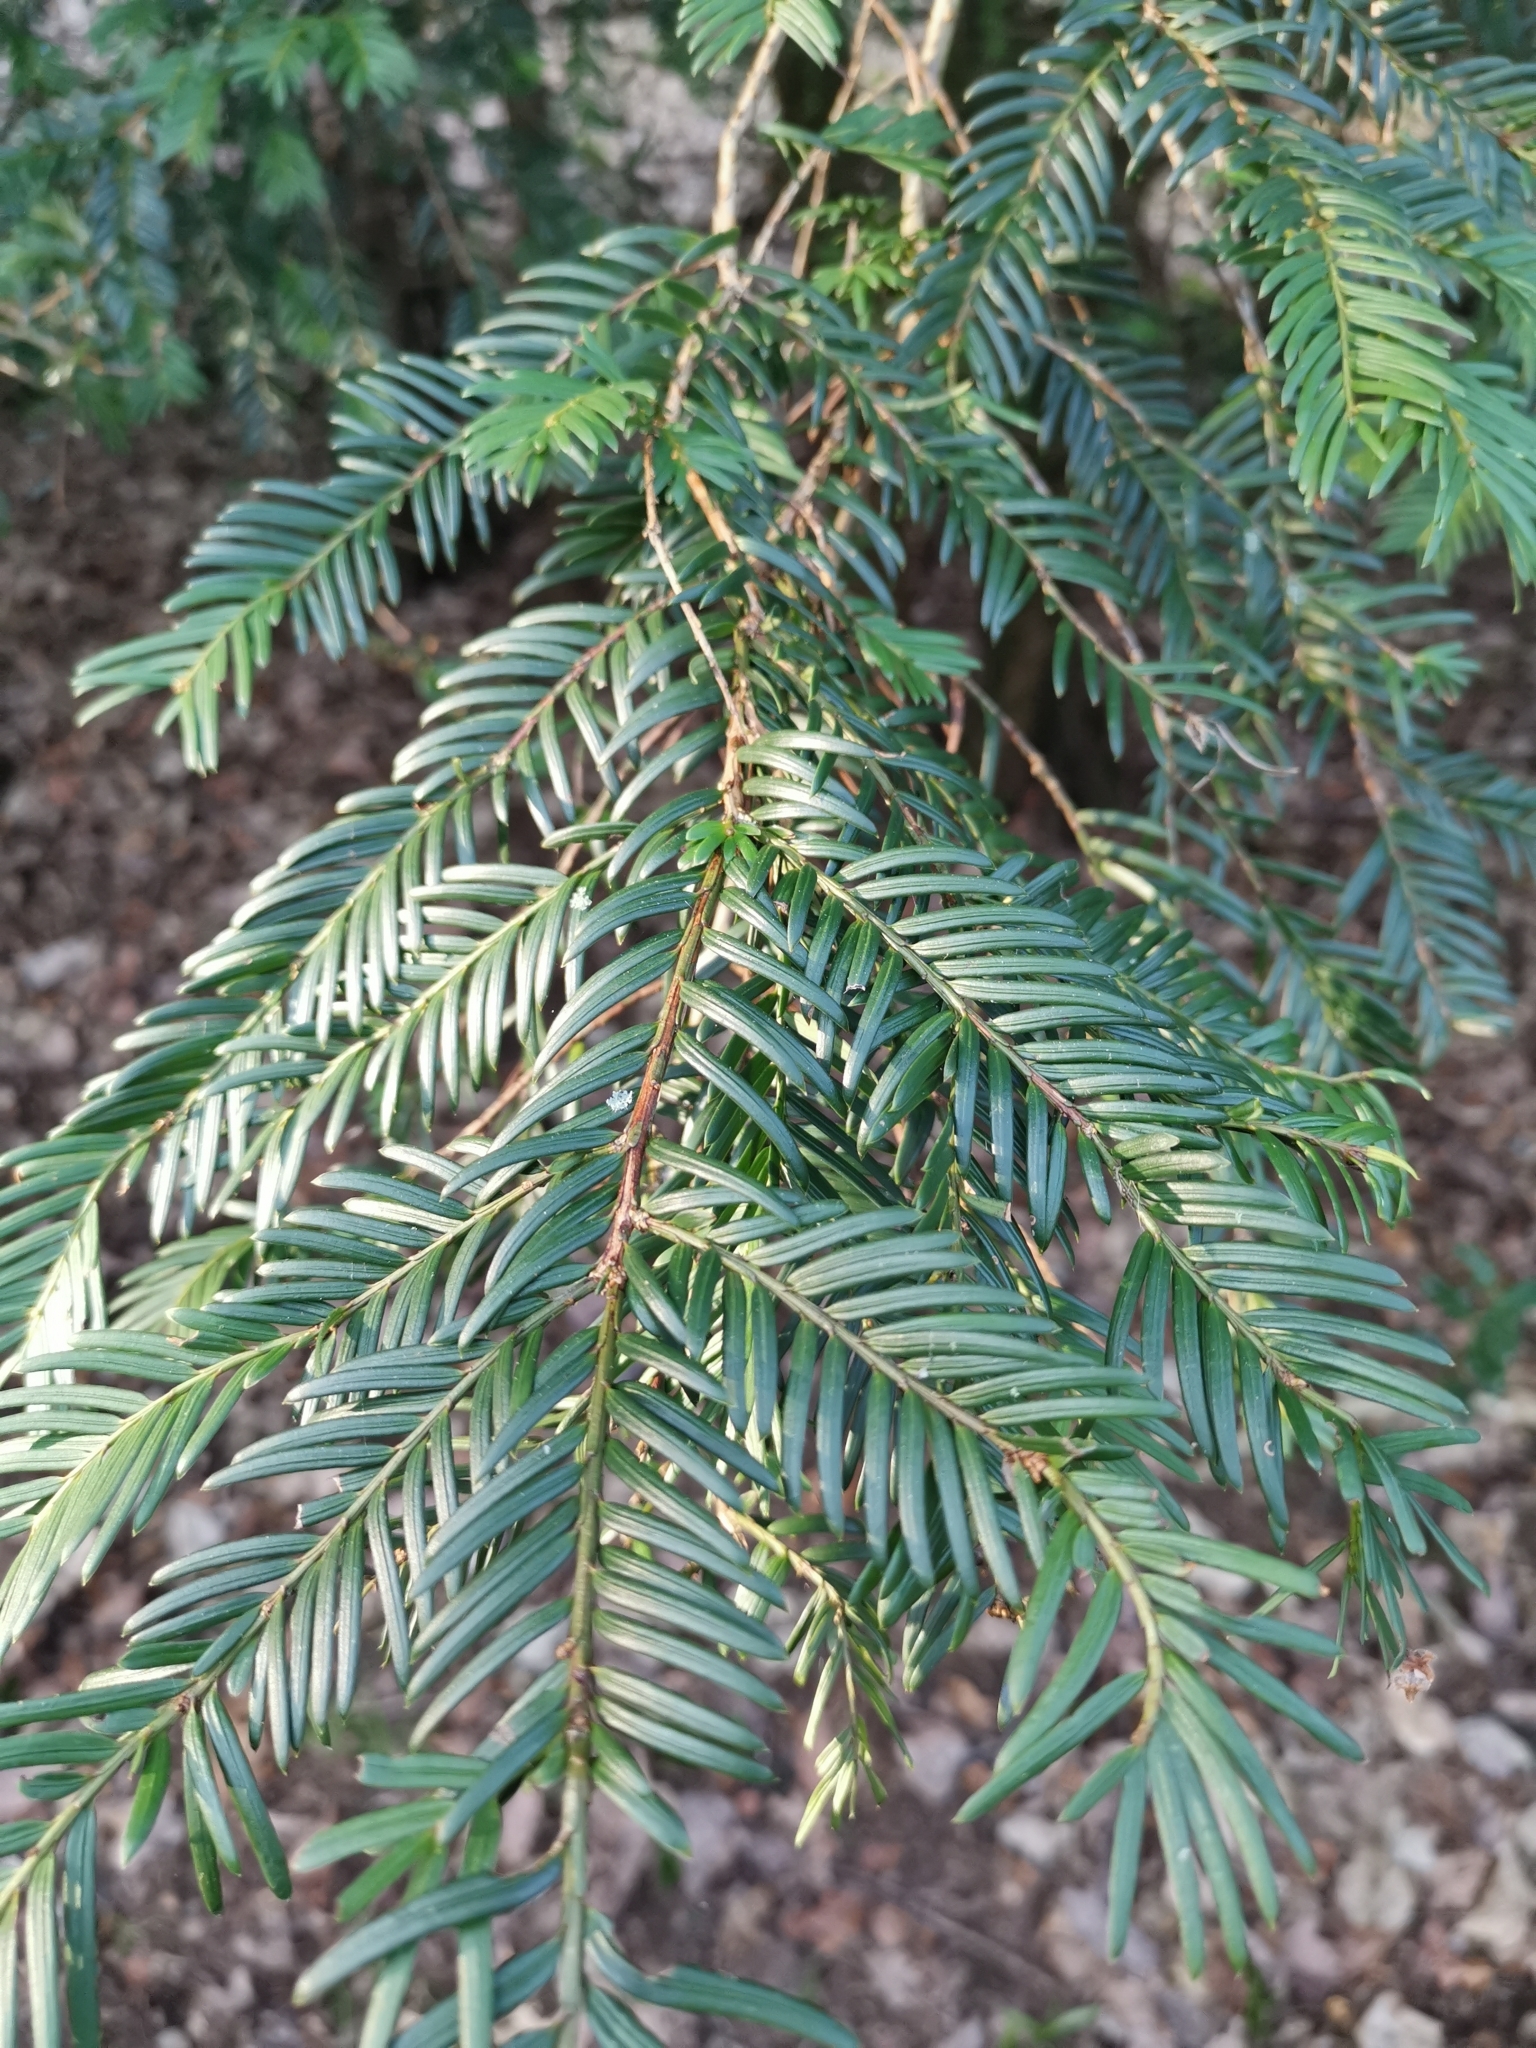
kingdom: Plantae
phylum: Tracheophyta
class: Pinopsida
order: Pinales
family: Taxaceae
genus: Taxus
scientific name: Taxus baccata
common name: Yew
